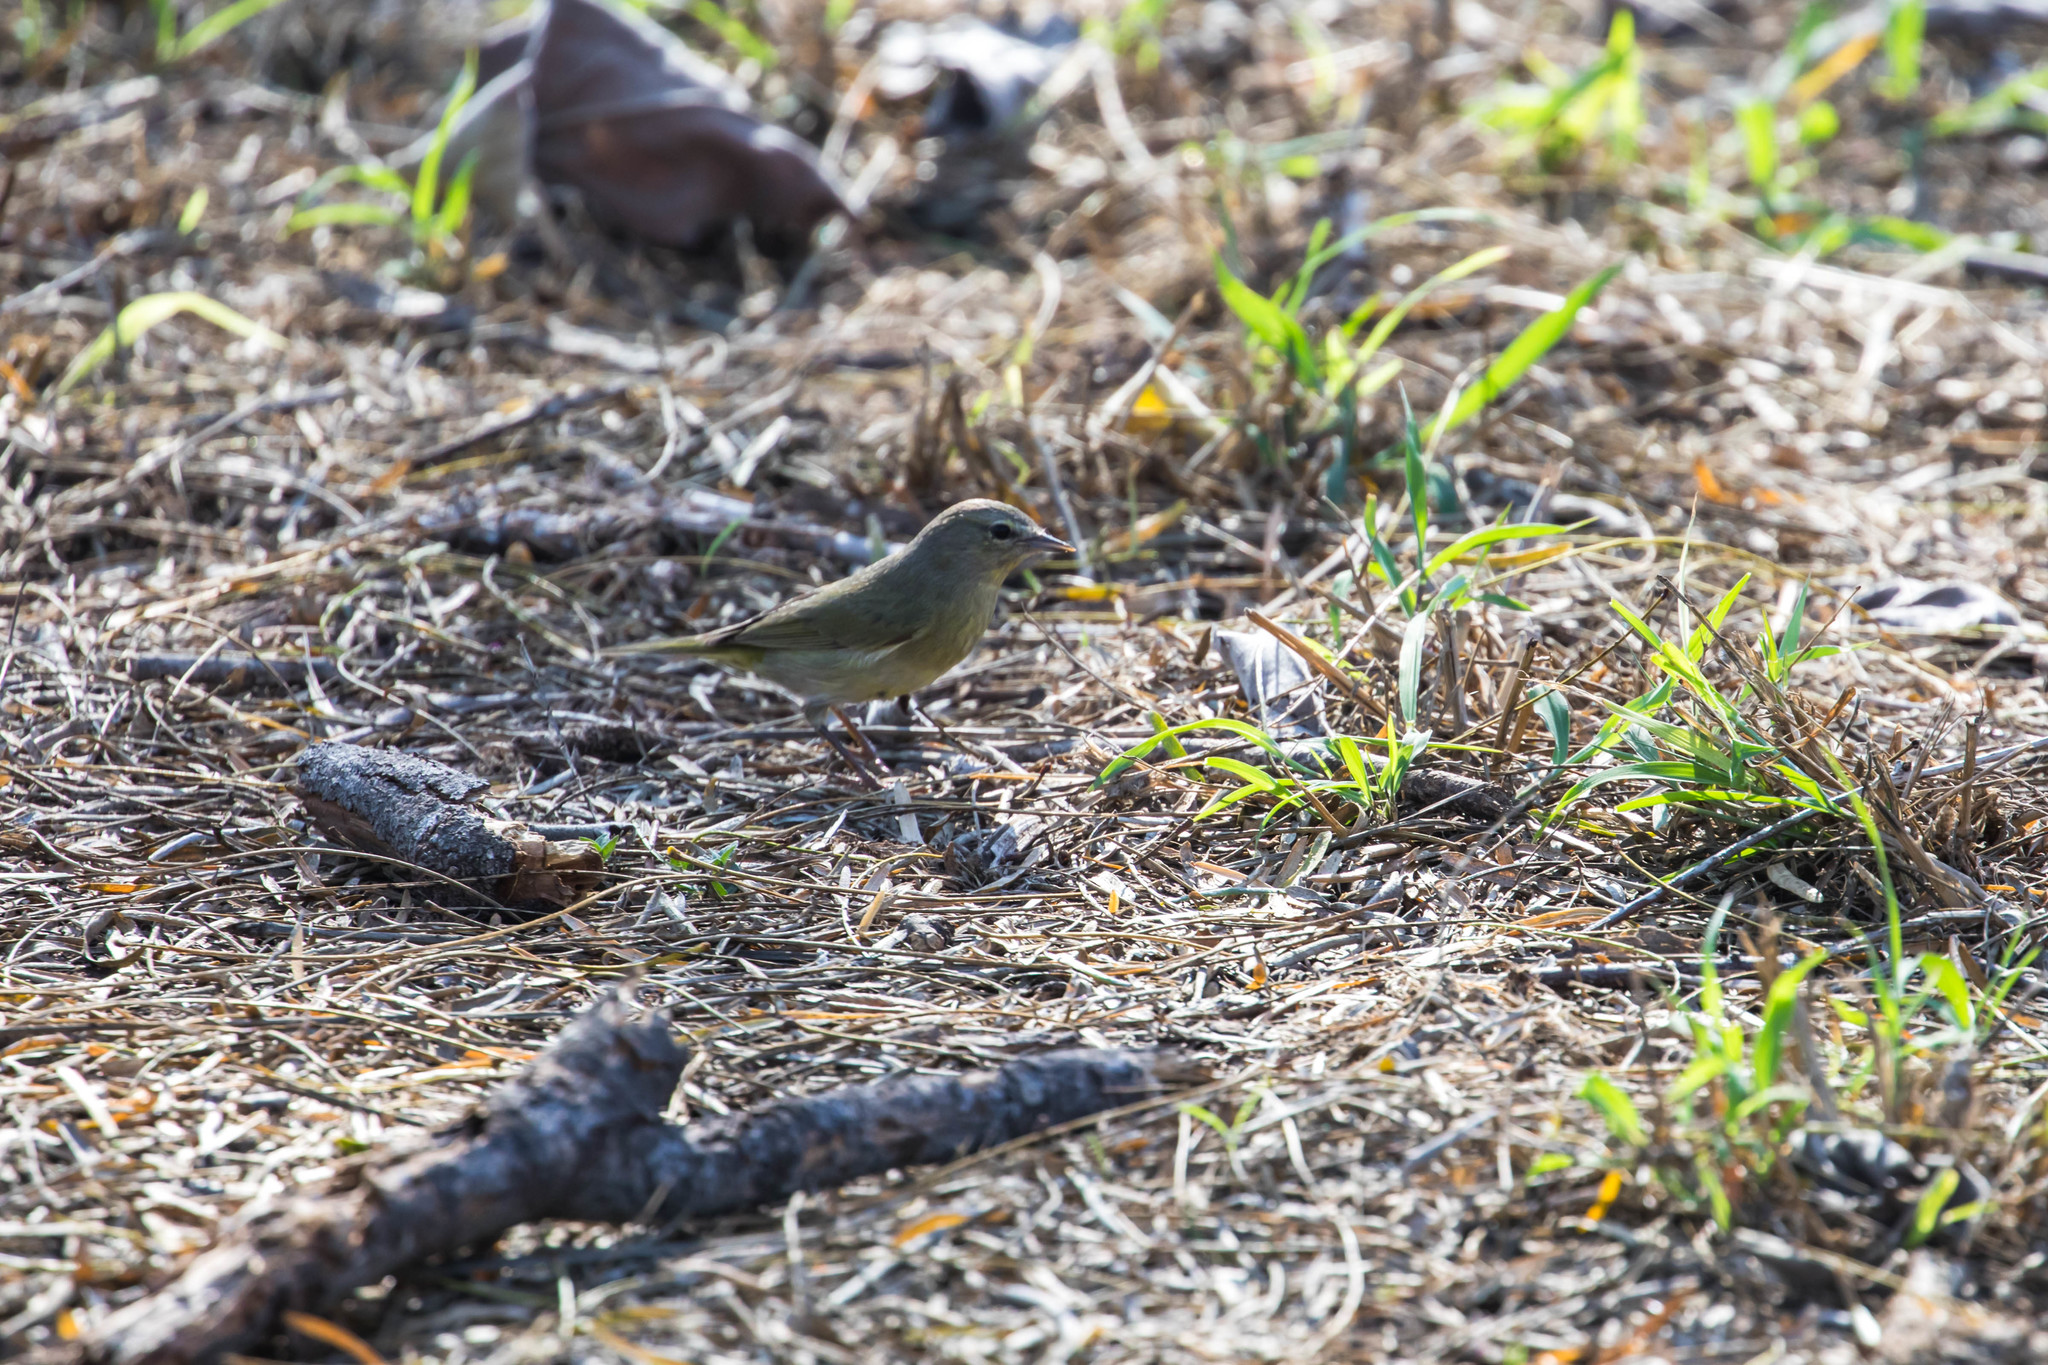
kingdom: Animalia
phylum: Chordata
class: Aves
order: Passeriformes
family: Parulidae
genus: Leiothlypis
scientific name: Leiothlypis celata
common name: Orange-crowned warbler
